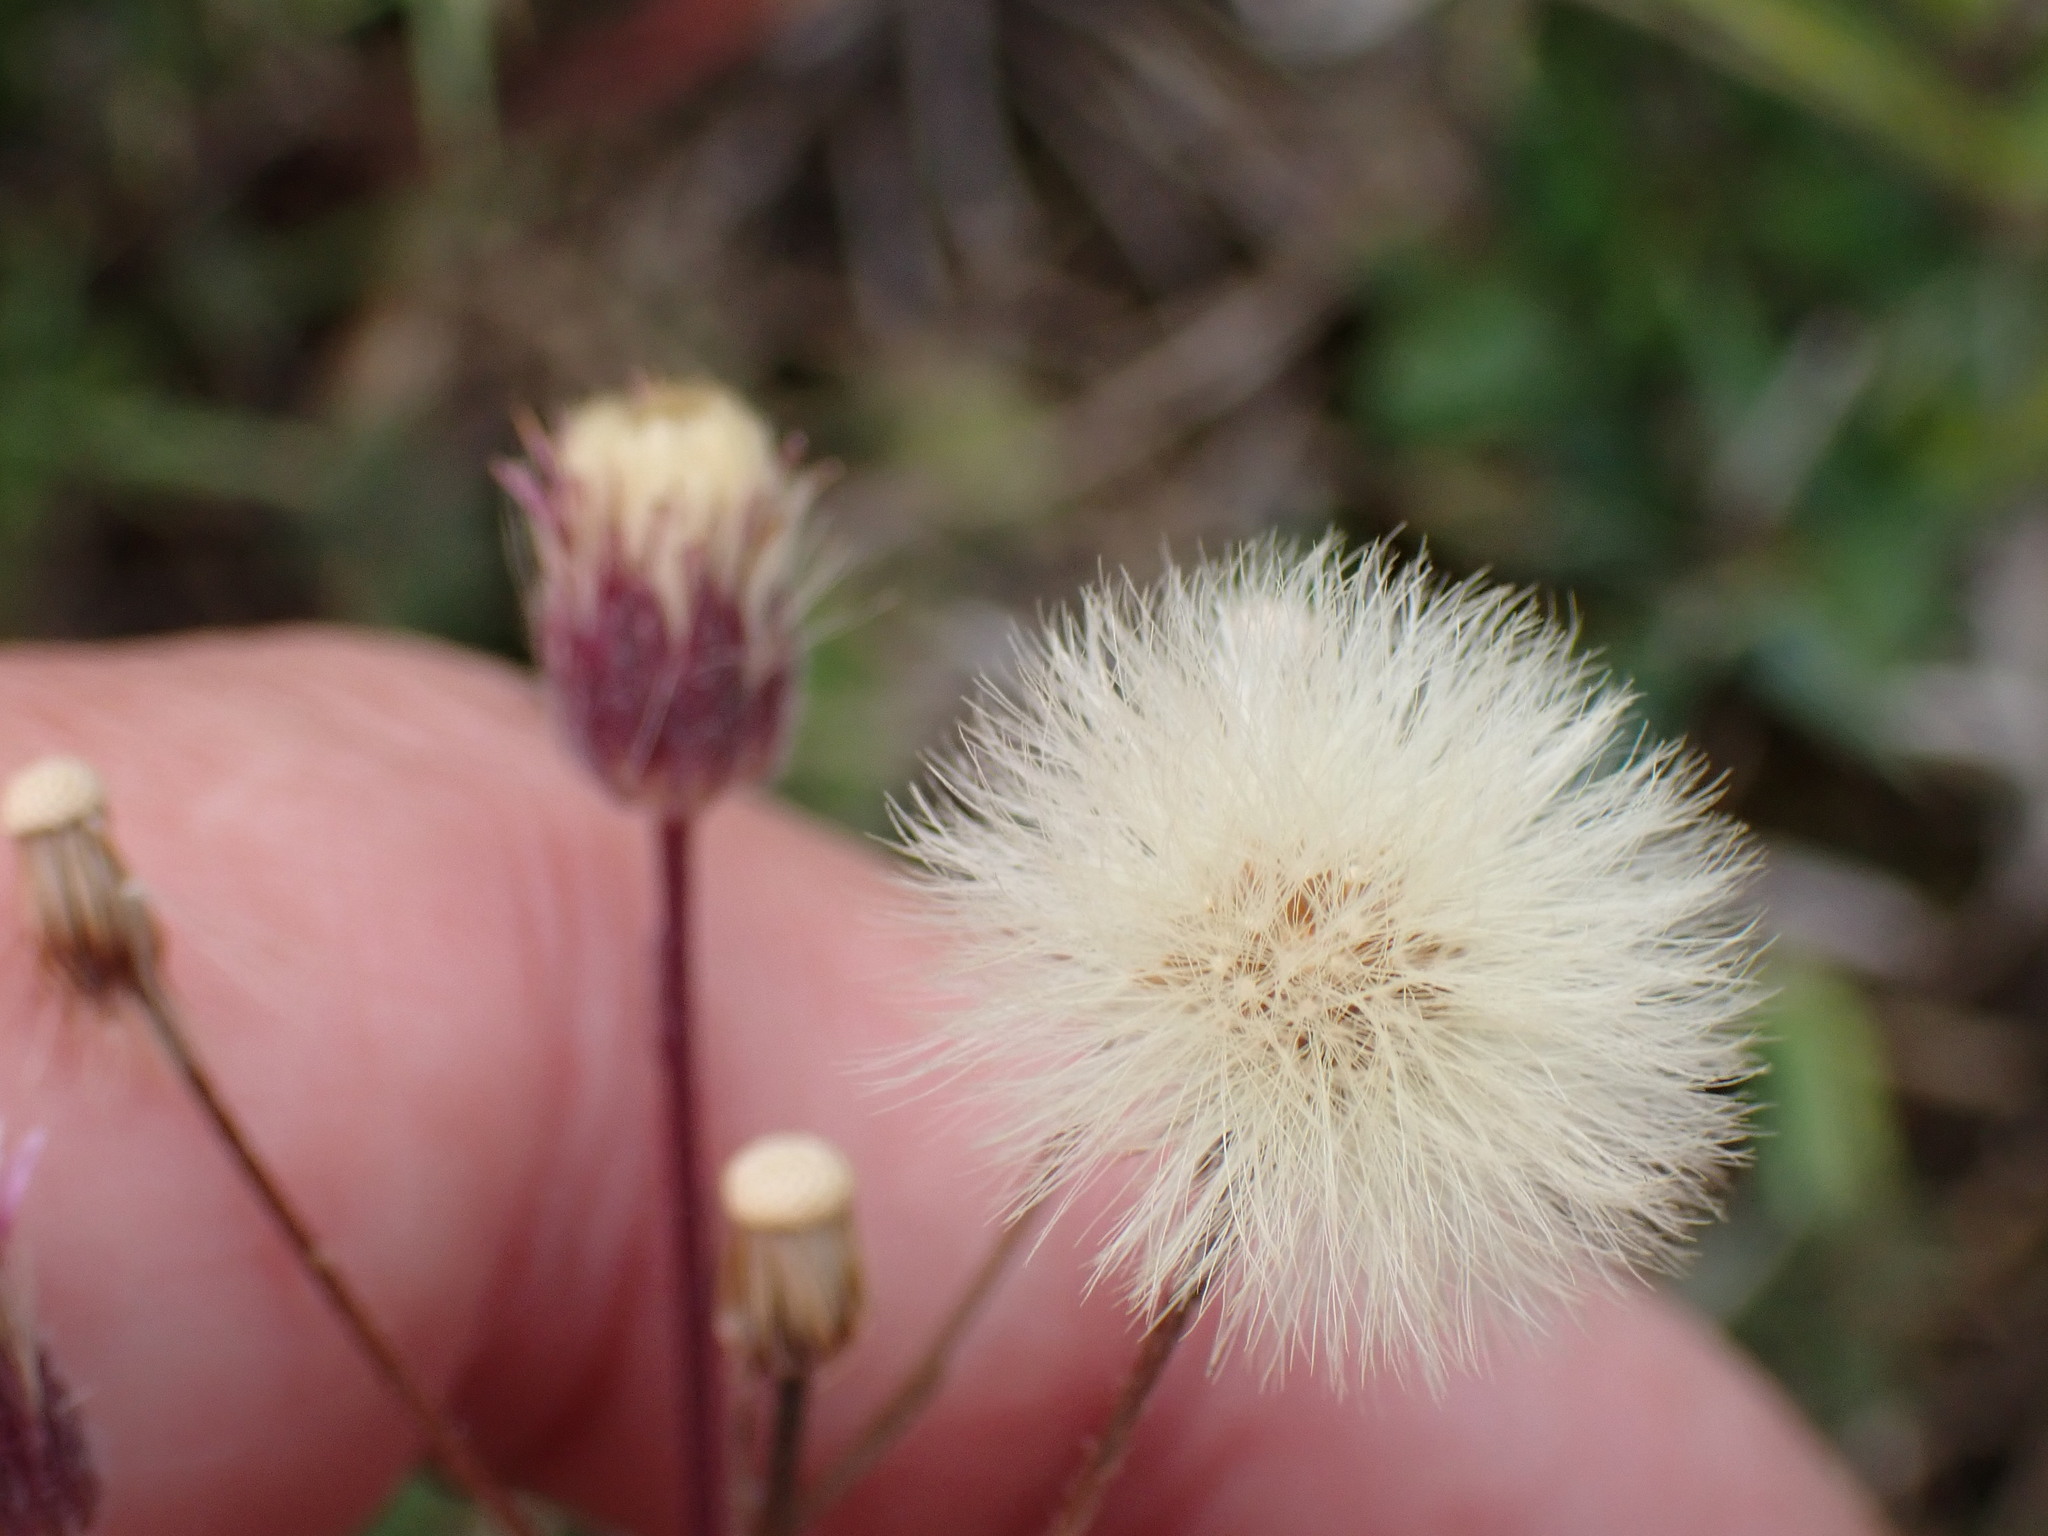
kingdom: Plantae
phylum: Tracheophyta
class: Magnoliopsida
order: Asterales
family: Asteraceae
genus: Erigeron
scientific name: Erigeron acris
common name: Blue fleabane
